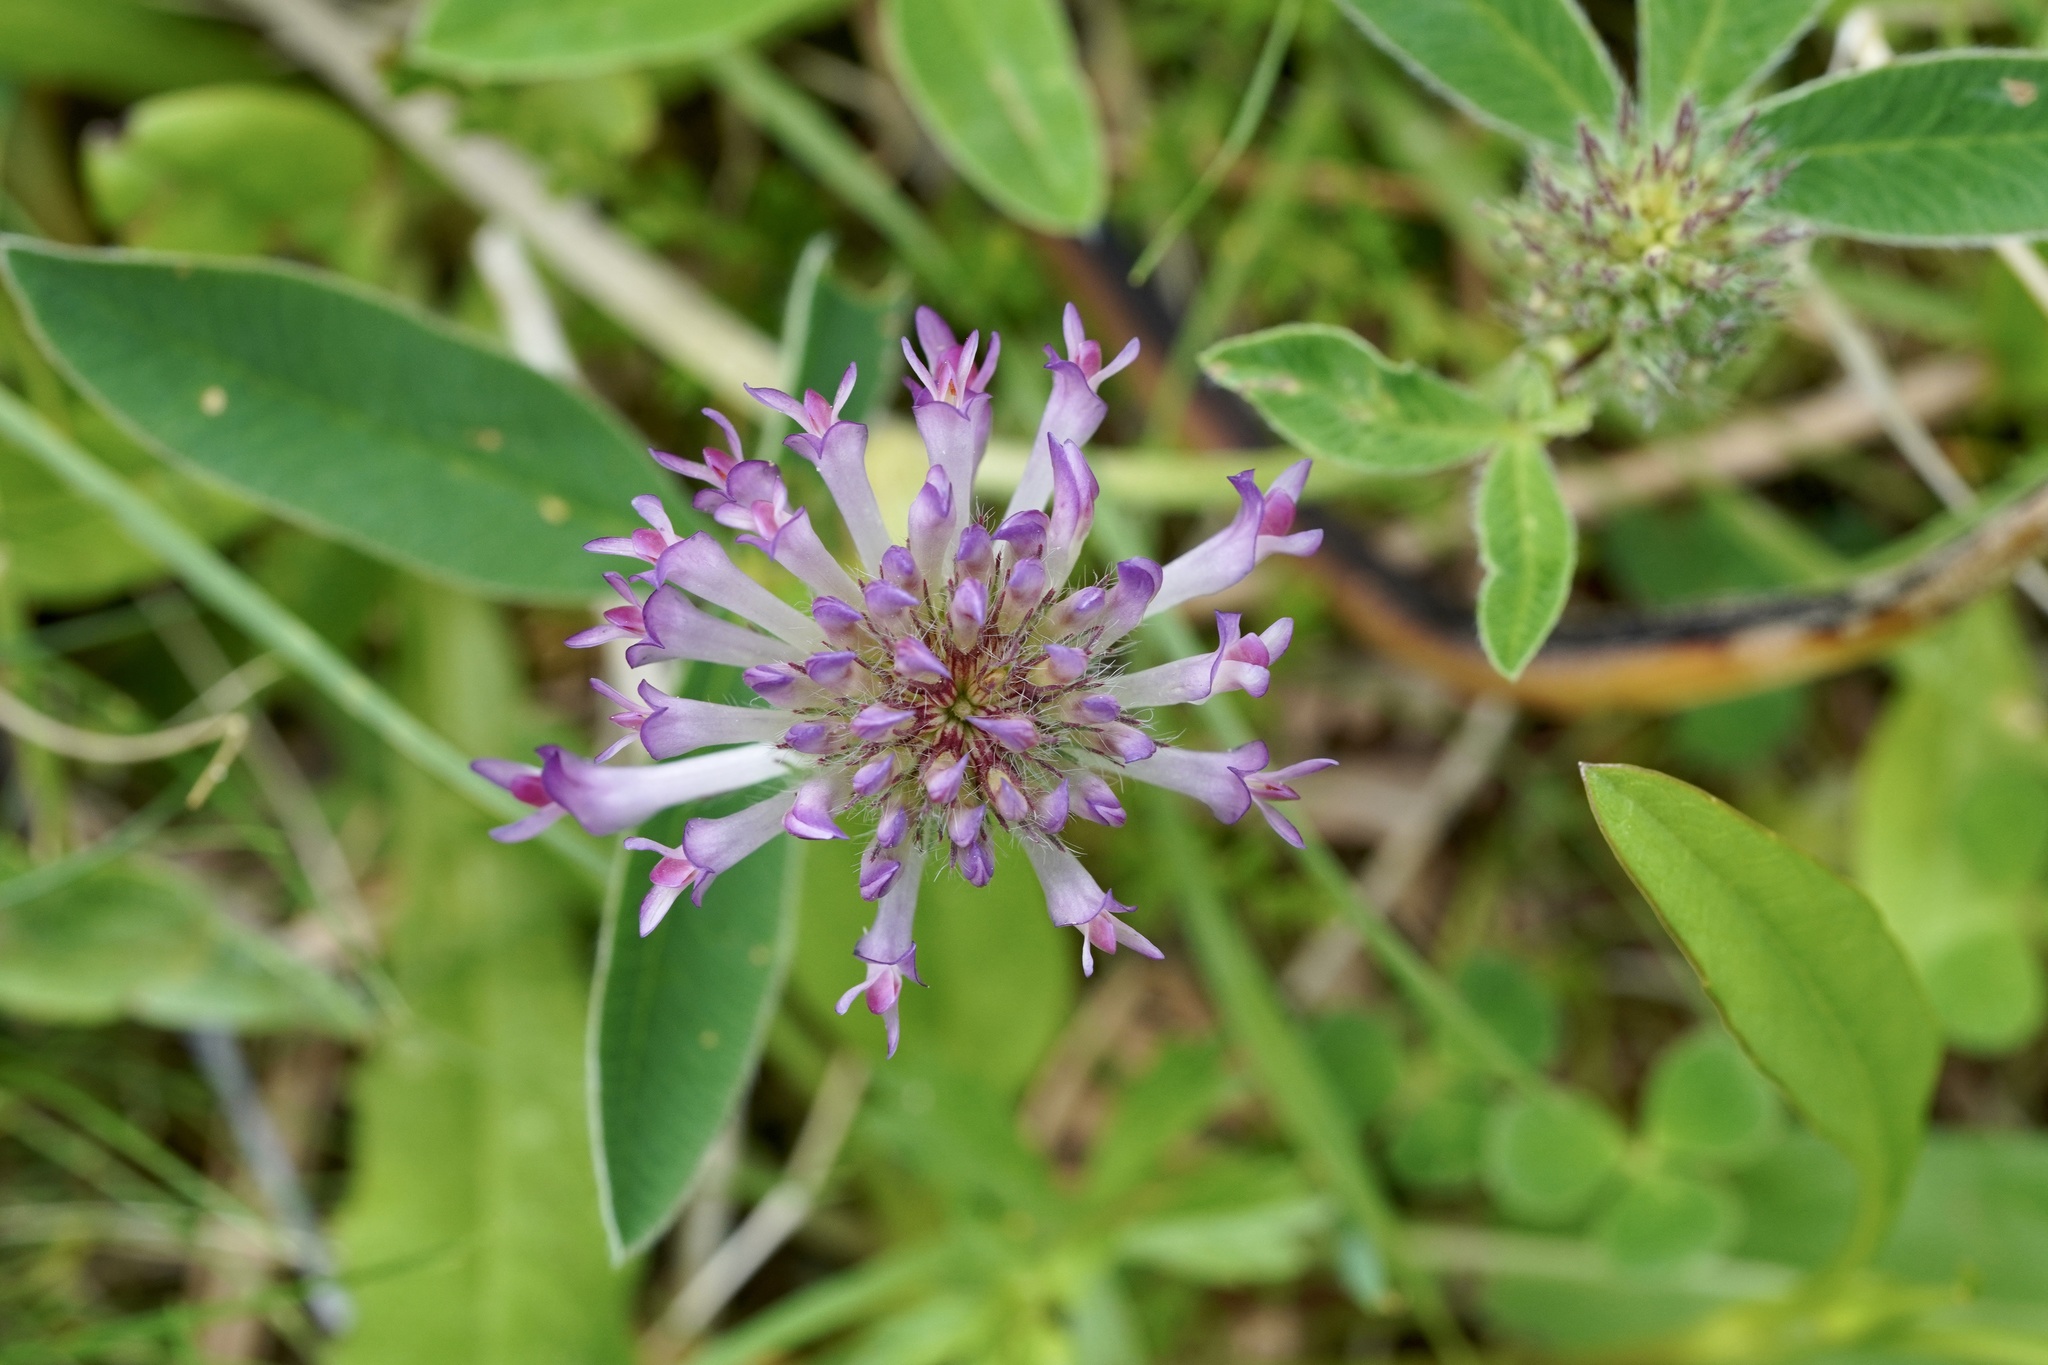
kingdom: Plantae
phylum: Tracheophyta
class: Magnoliopsida
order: Fabales
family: Fabaceae
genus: Trifolium
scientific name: Trifolium medium
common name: Zigzag clover
